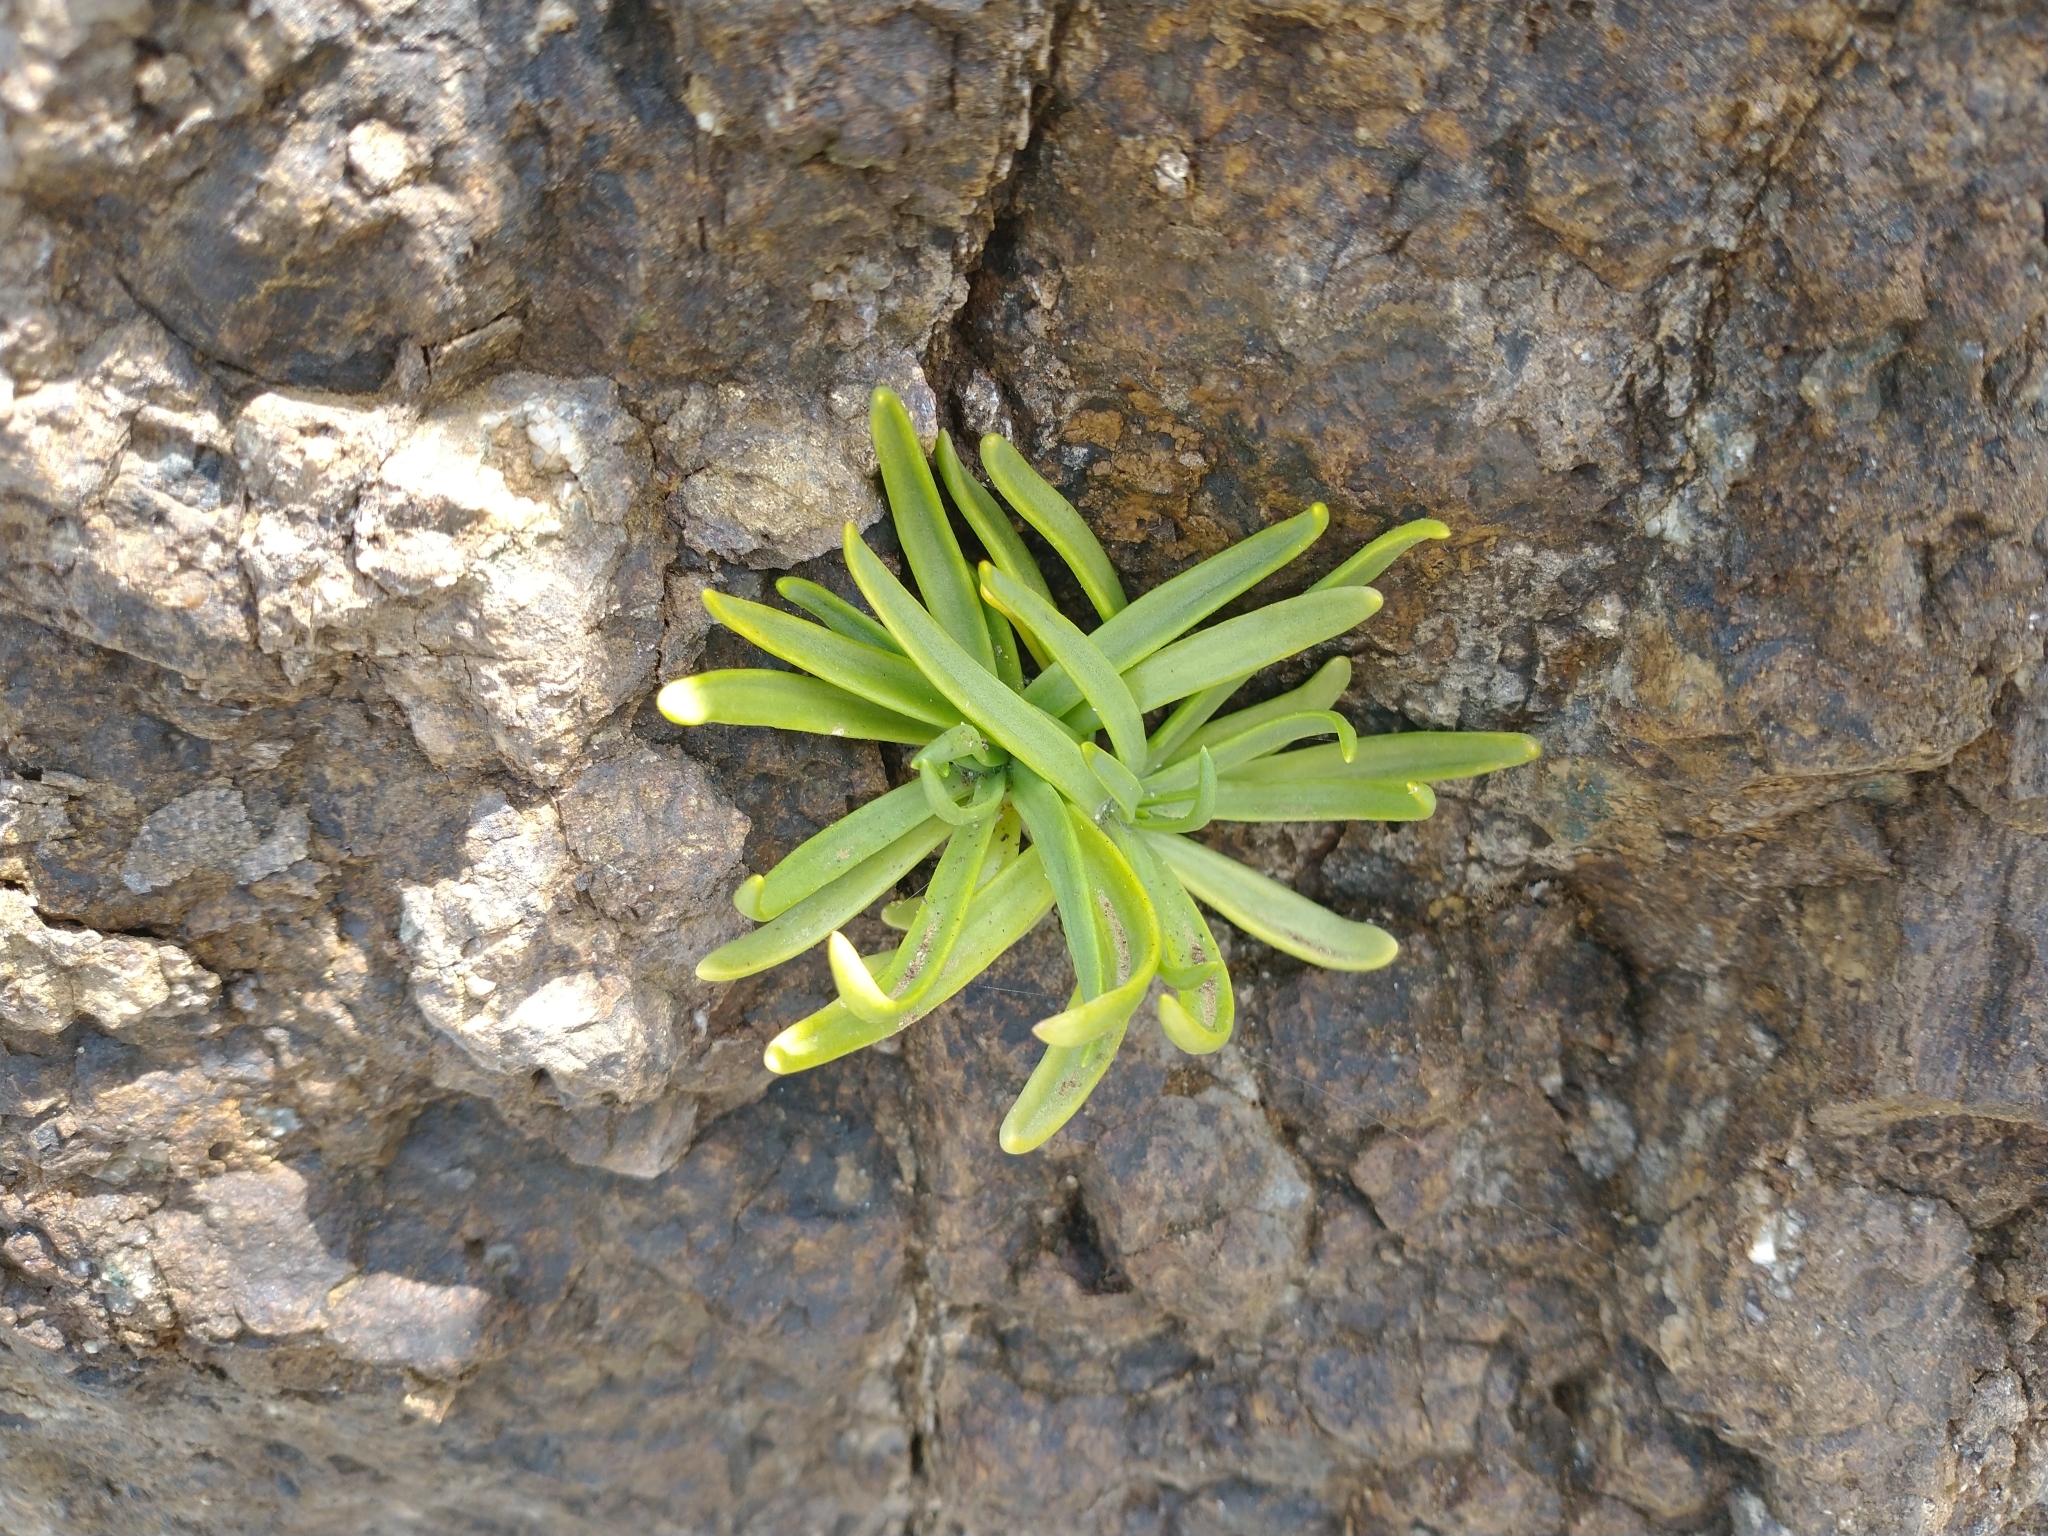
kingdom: Plantae
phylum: Tracheophyta
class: Magnoliopsida
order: Lamiales
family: Plantaginaceae
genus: Plantago
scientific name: Plantago maritima
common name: Sea plantain
